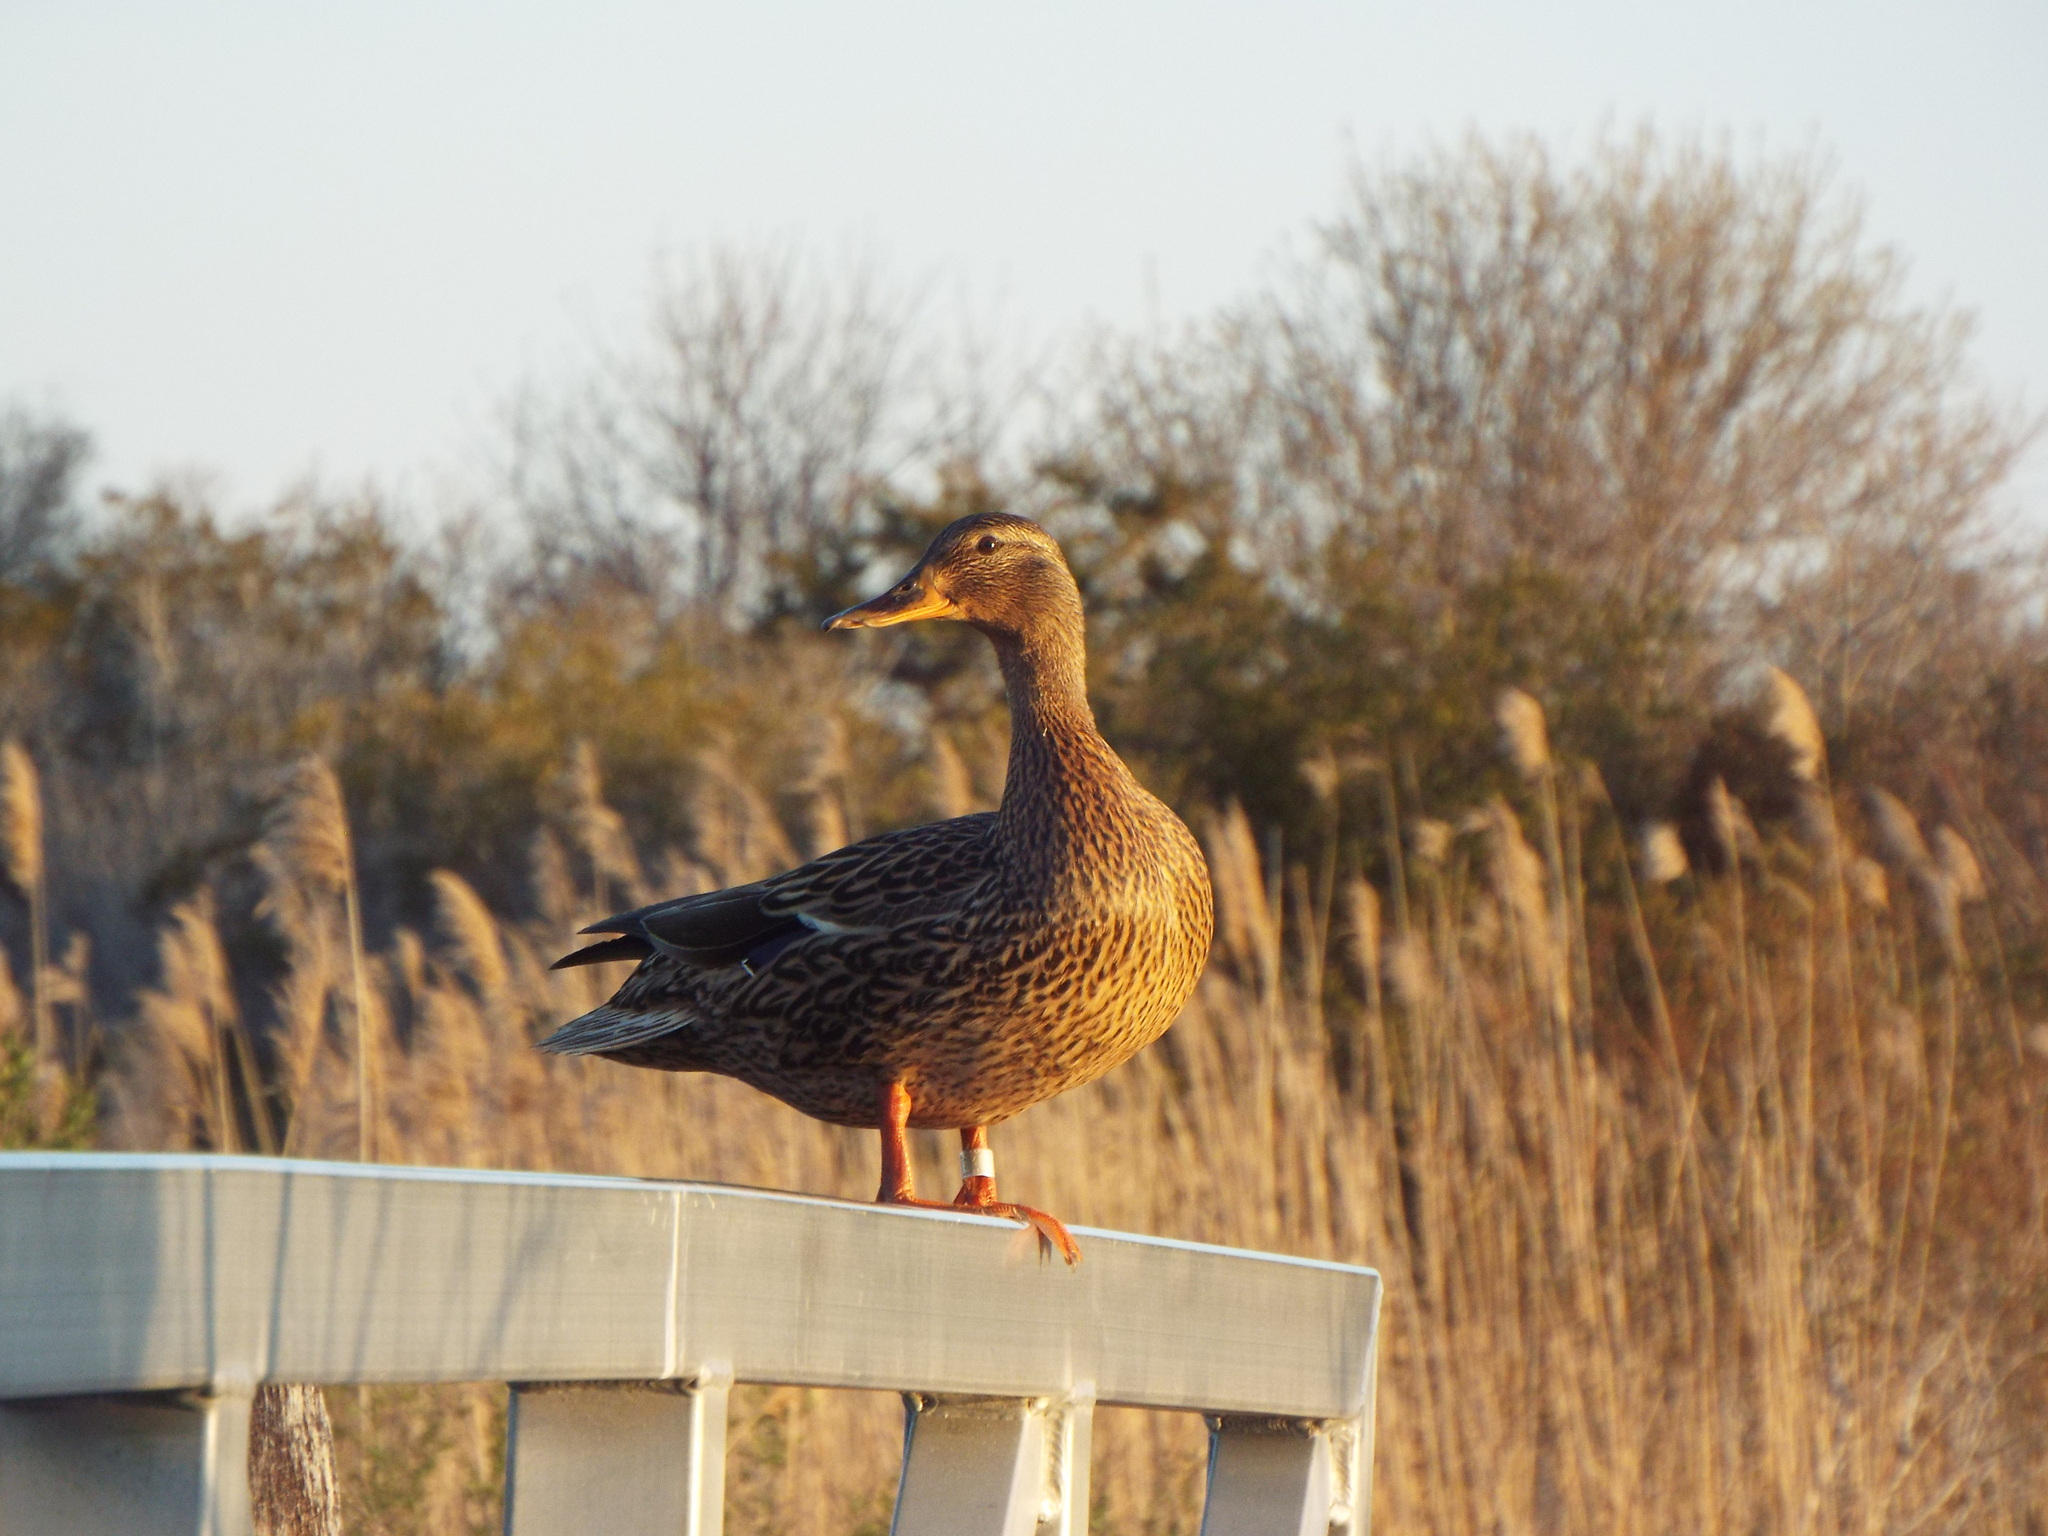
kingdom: Animalia
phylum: Chordata
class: Aves
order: Anseriformes
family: Anatidae
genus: Anas
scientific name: Anas platyrhynchos
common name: Mallard
